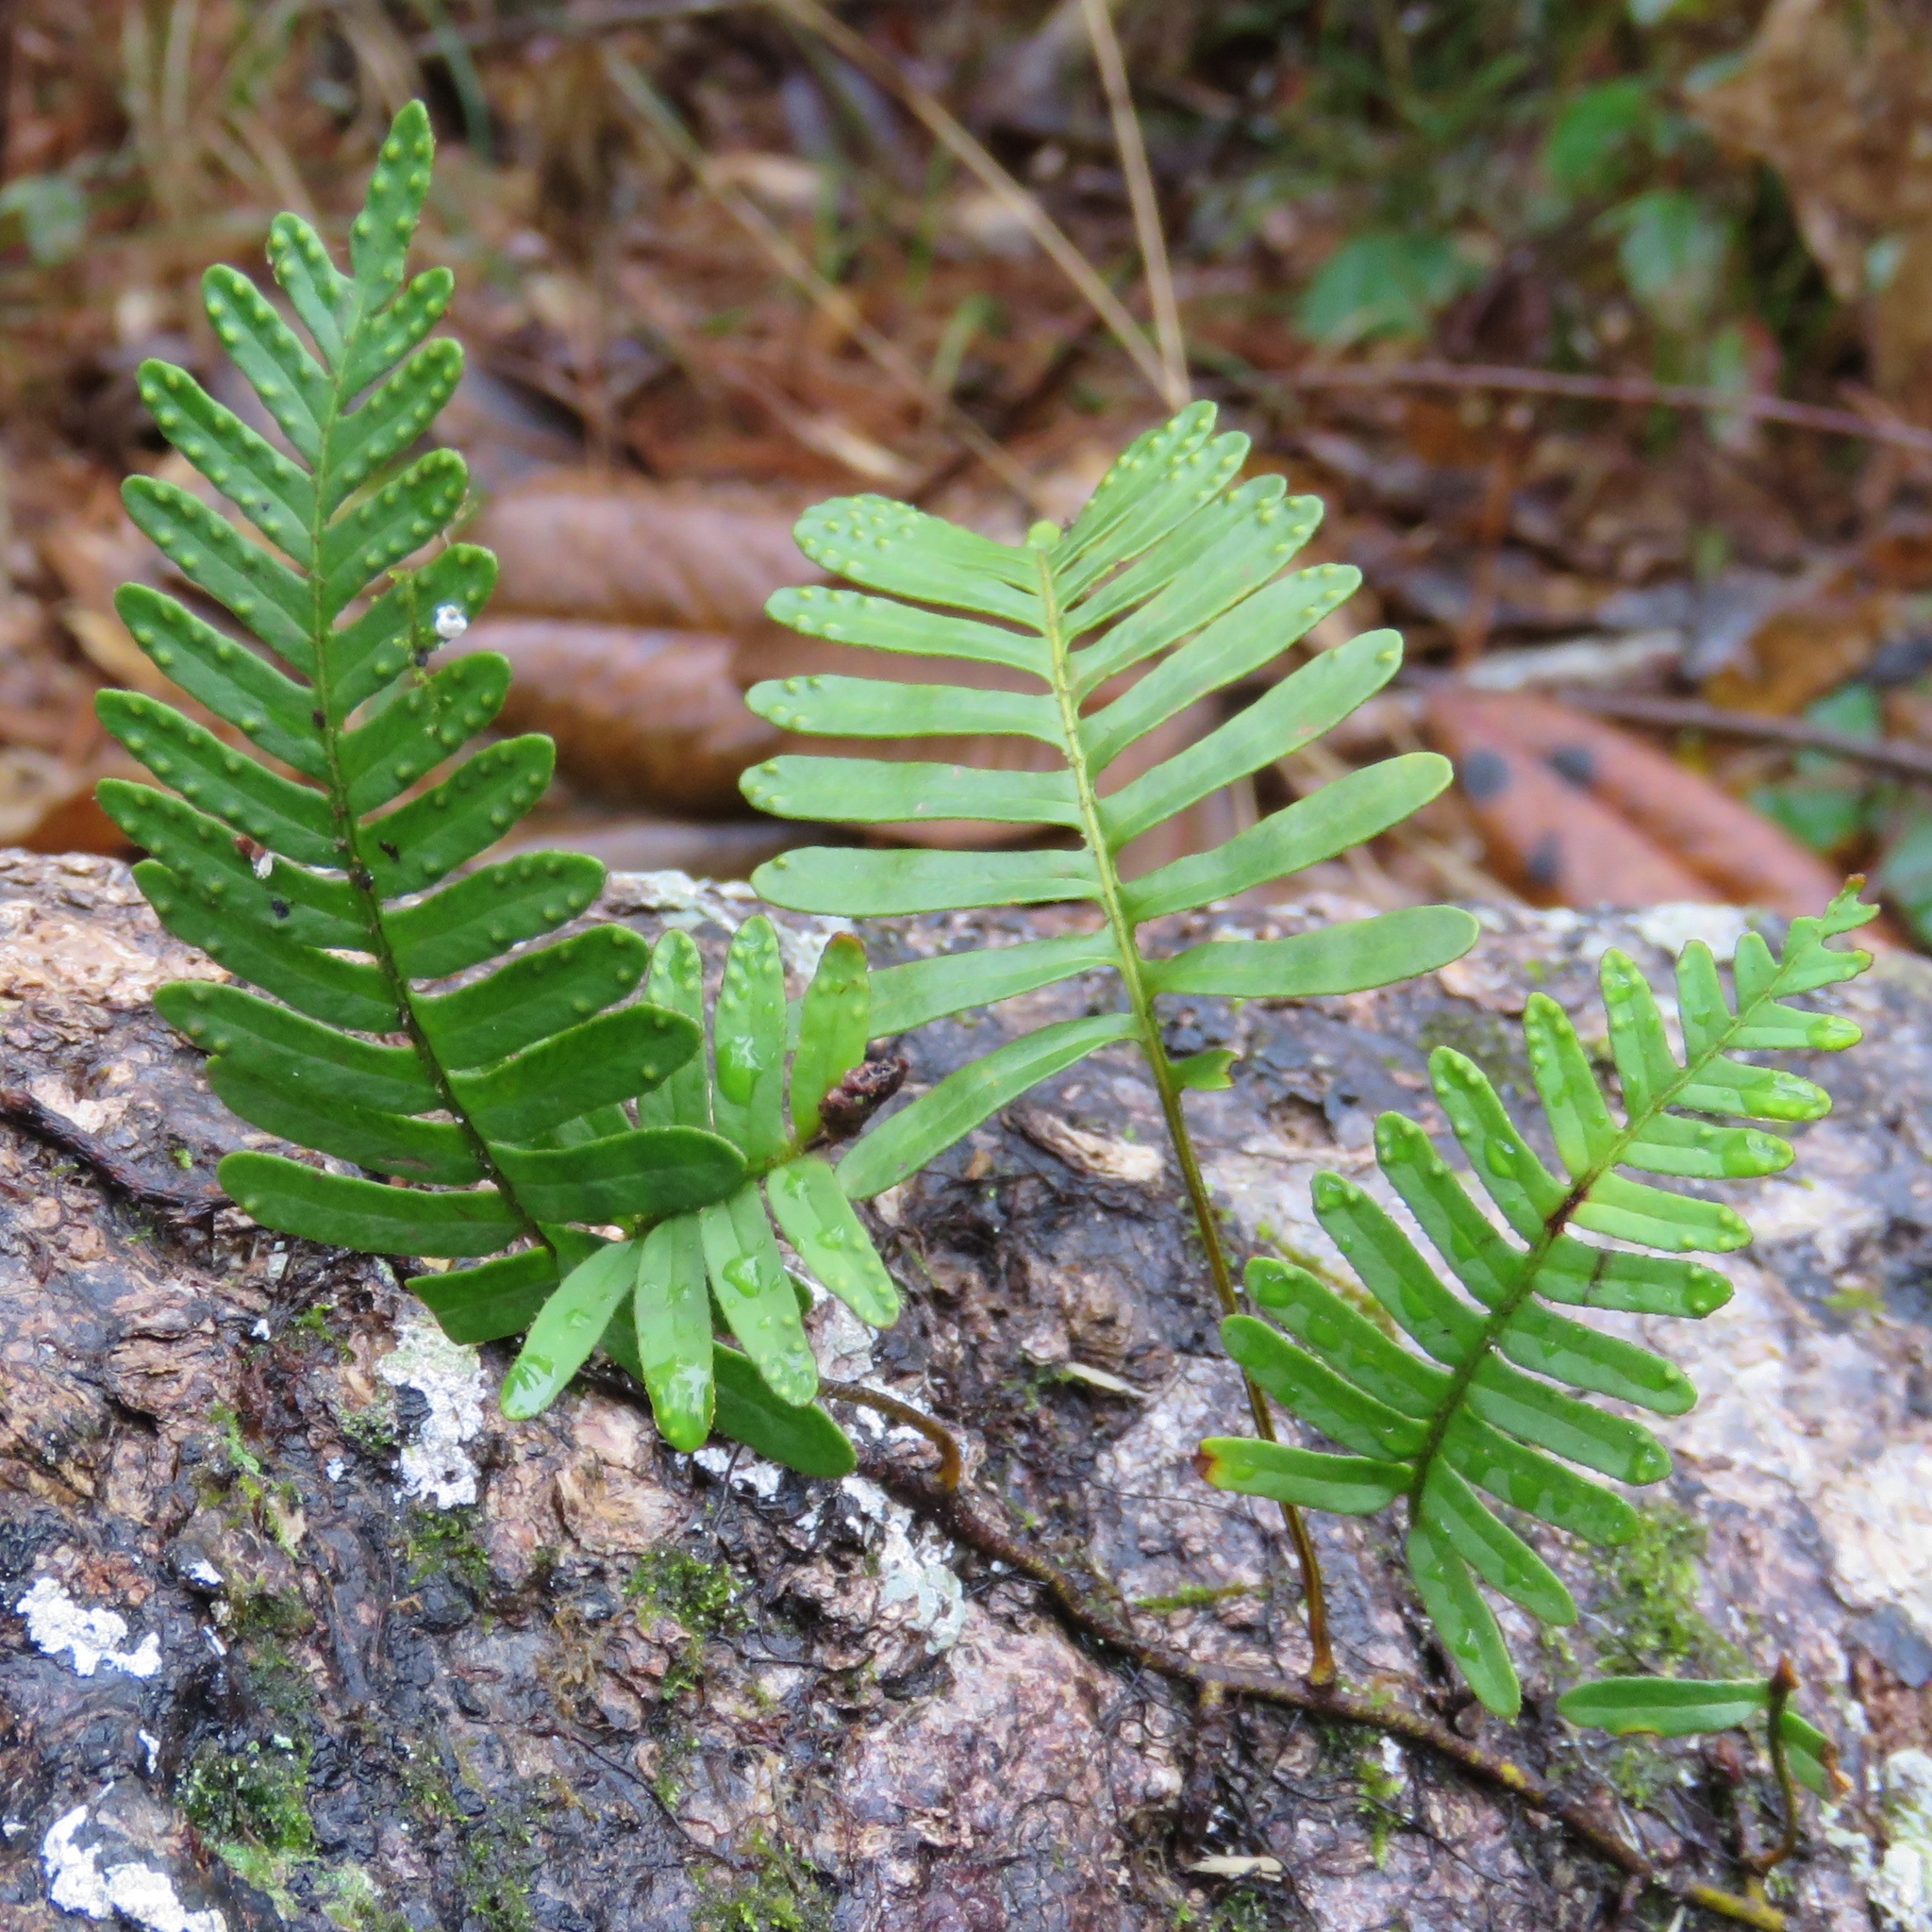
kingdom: Plantae
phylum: Tracheophyta
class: Polypodiopsida
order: Polypodiales
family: Polypodiaceae
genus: Pleopeltis
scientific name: Pleopeltis michauxiana
